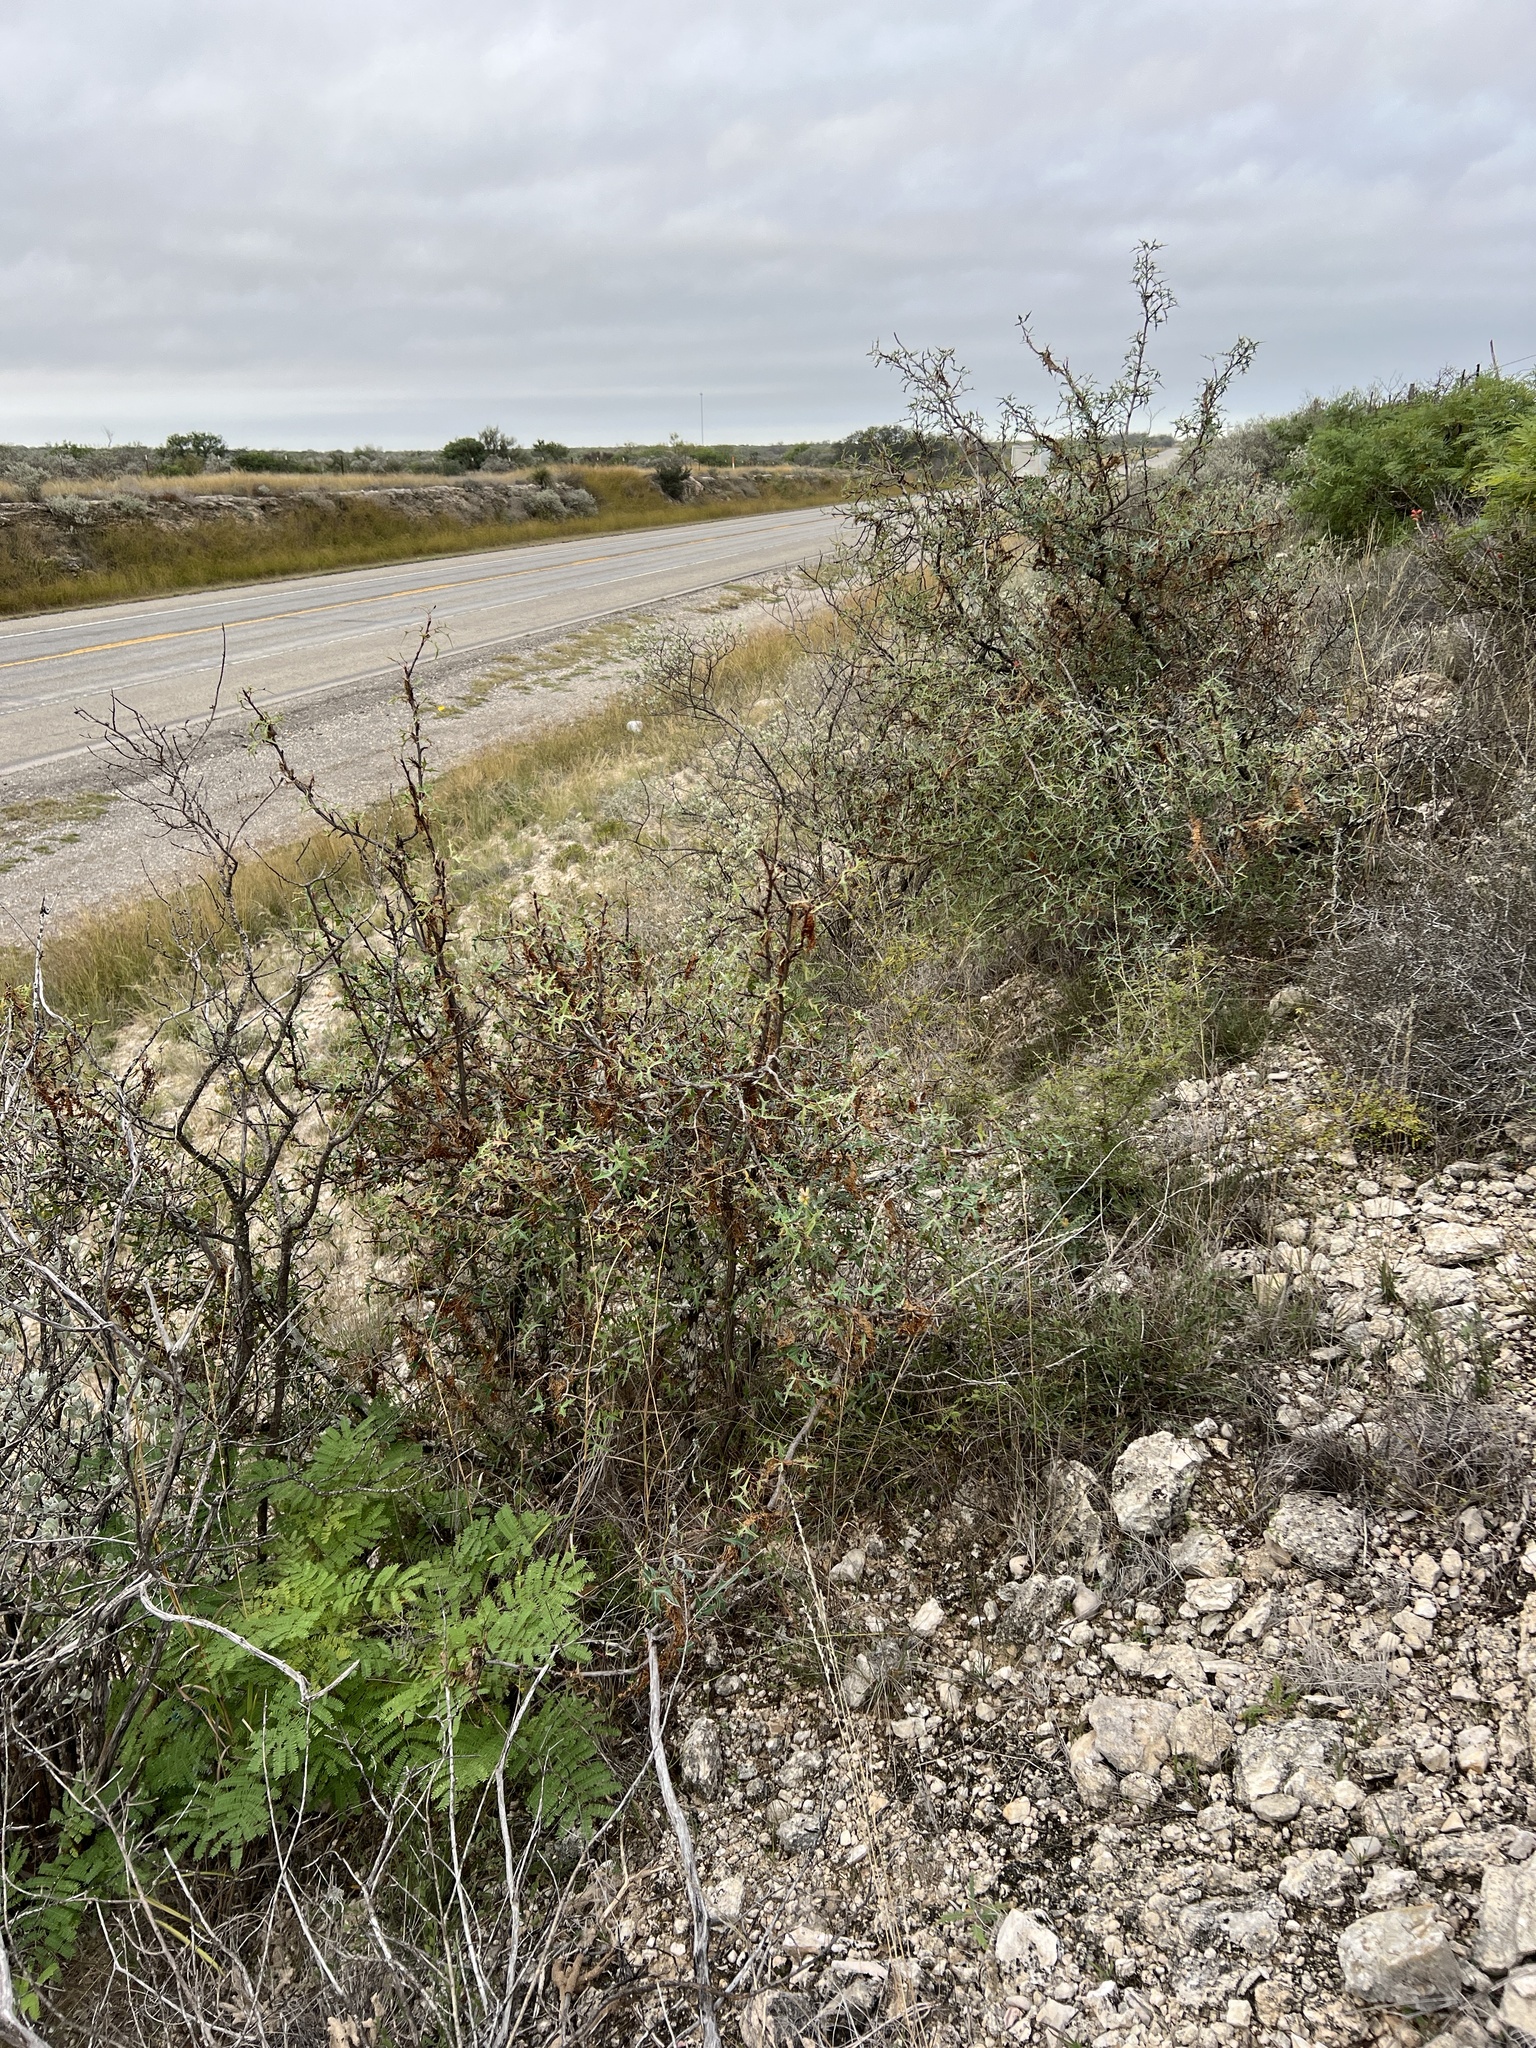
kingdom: Plantae
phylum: Tracheophyta
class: Magnoliopsida
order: Ranunculales
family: Berberidaceae
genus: Alloberberis
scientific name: Alloberberis trifoliolata
